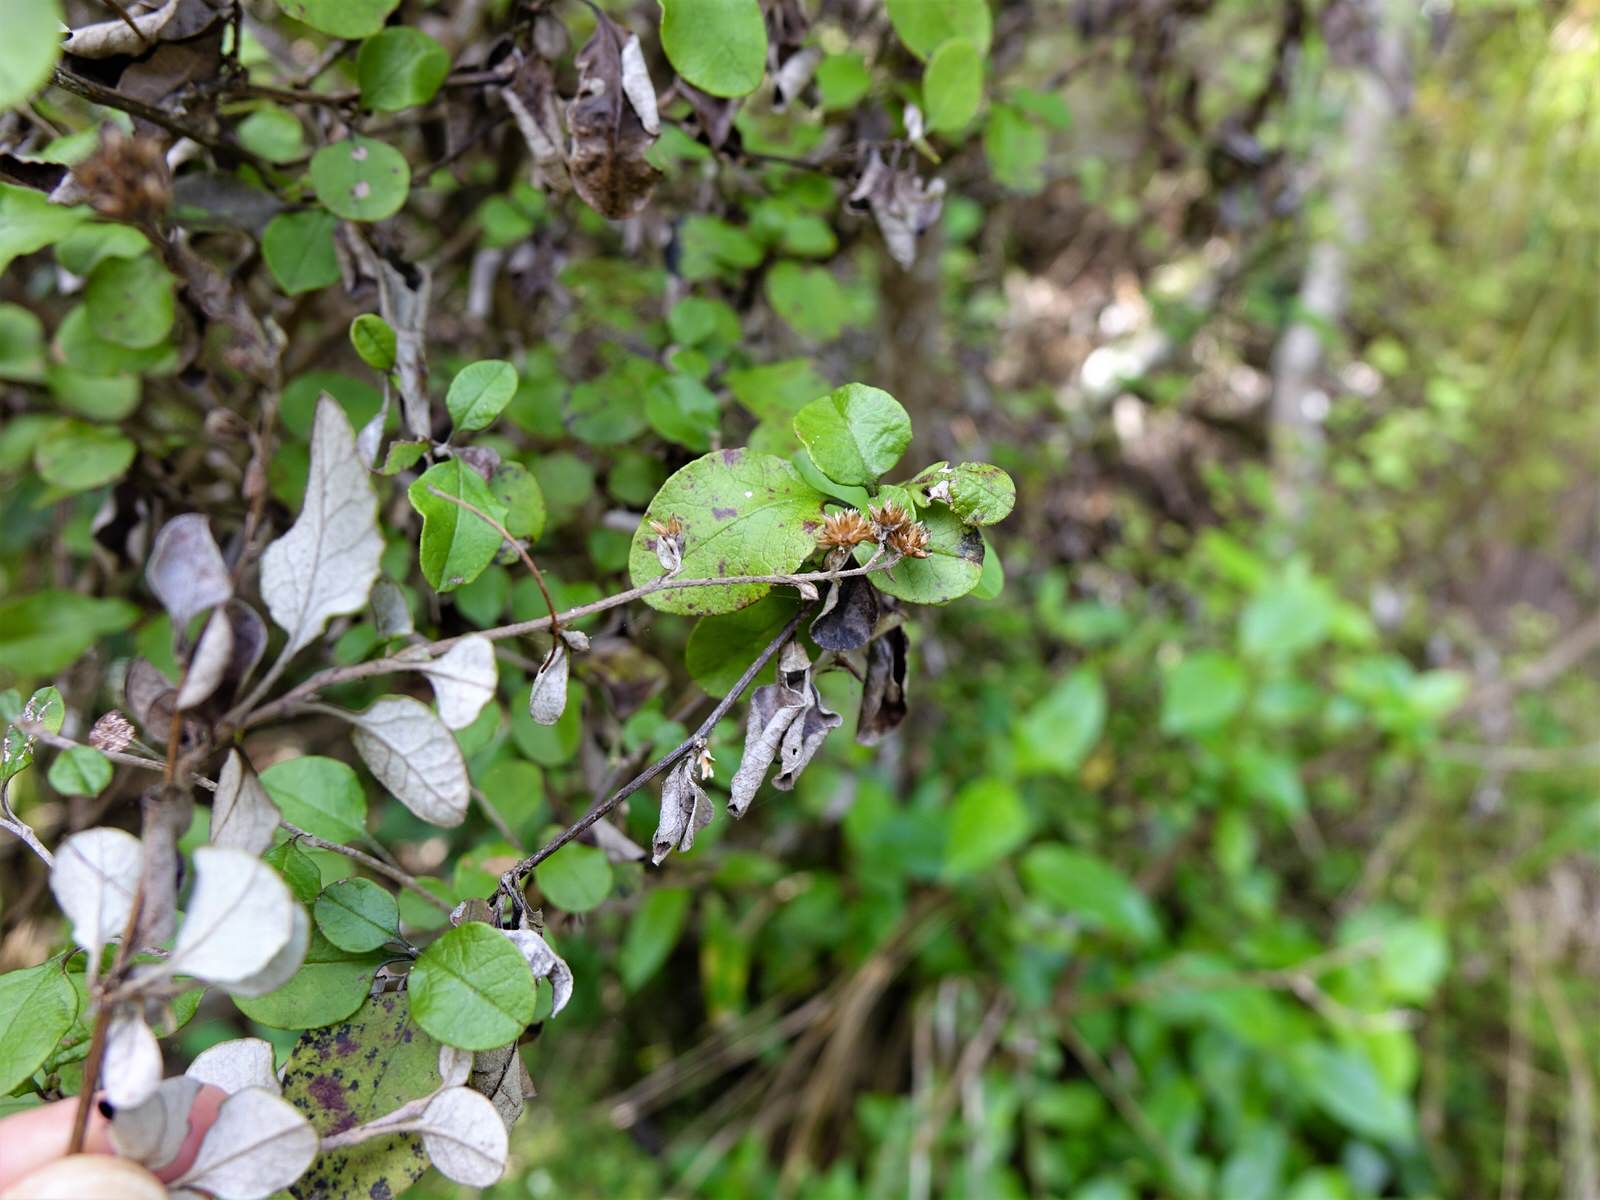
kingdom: Plantae
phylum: Tracheophyta
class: Magnoliopsida
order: Asterales
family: Asteraceae
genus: Ozothamnus
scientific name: Ozothamnus glomeratus
